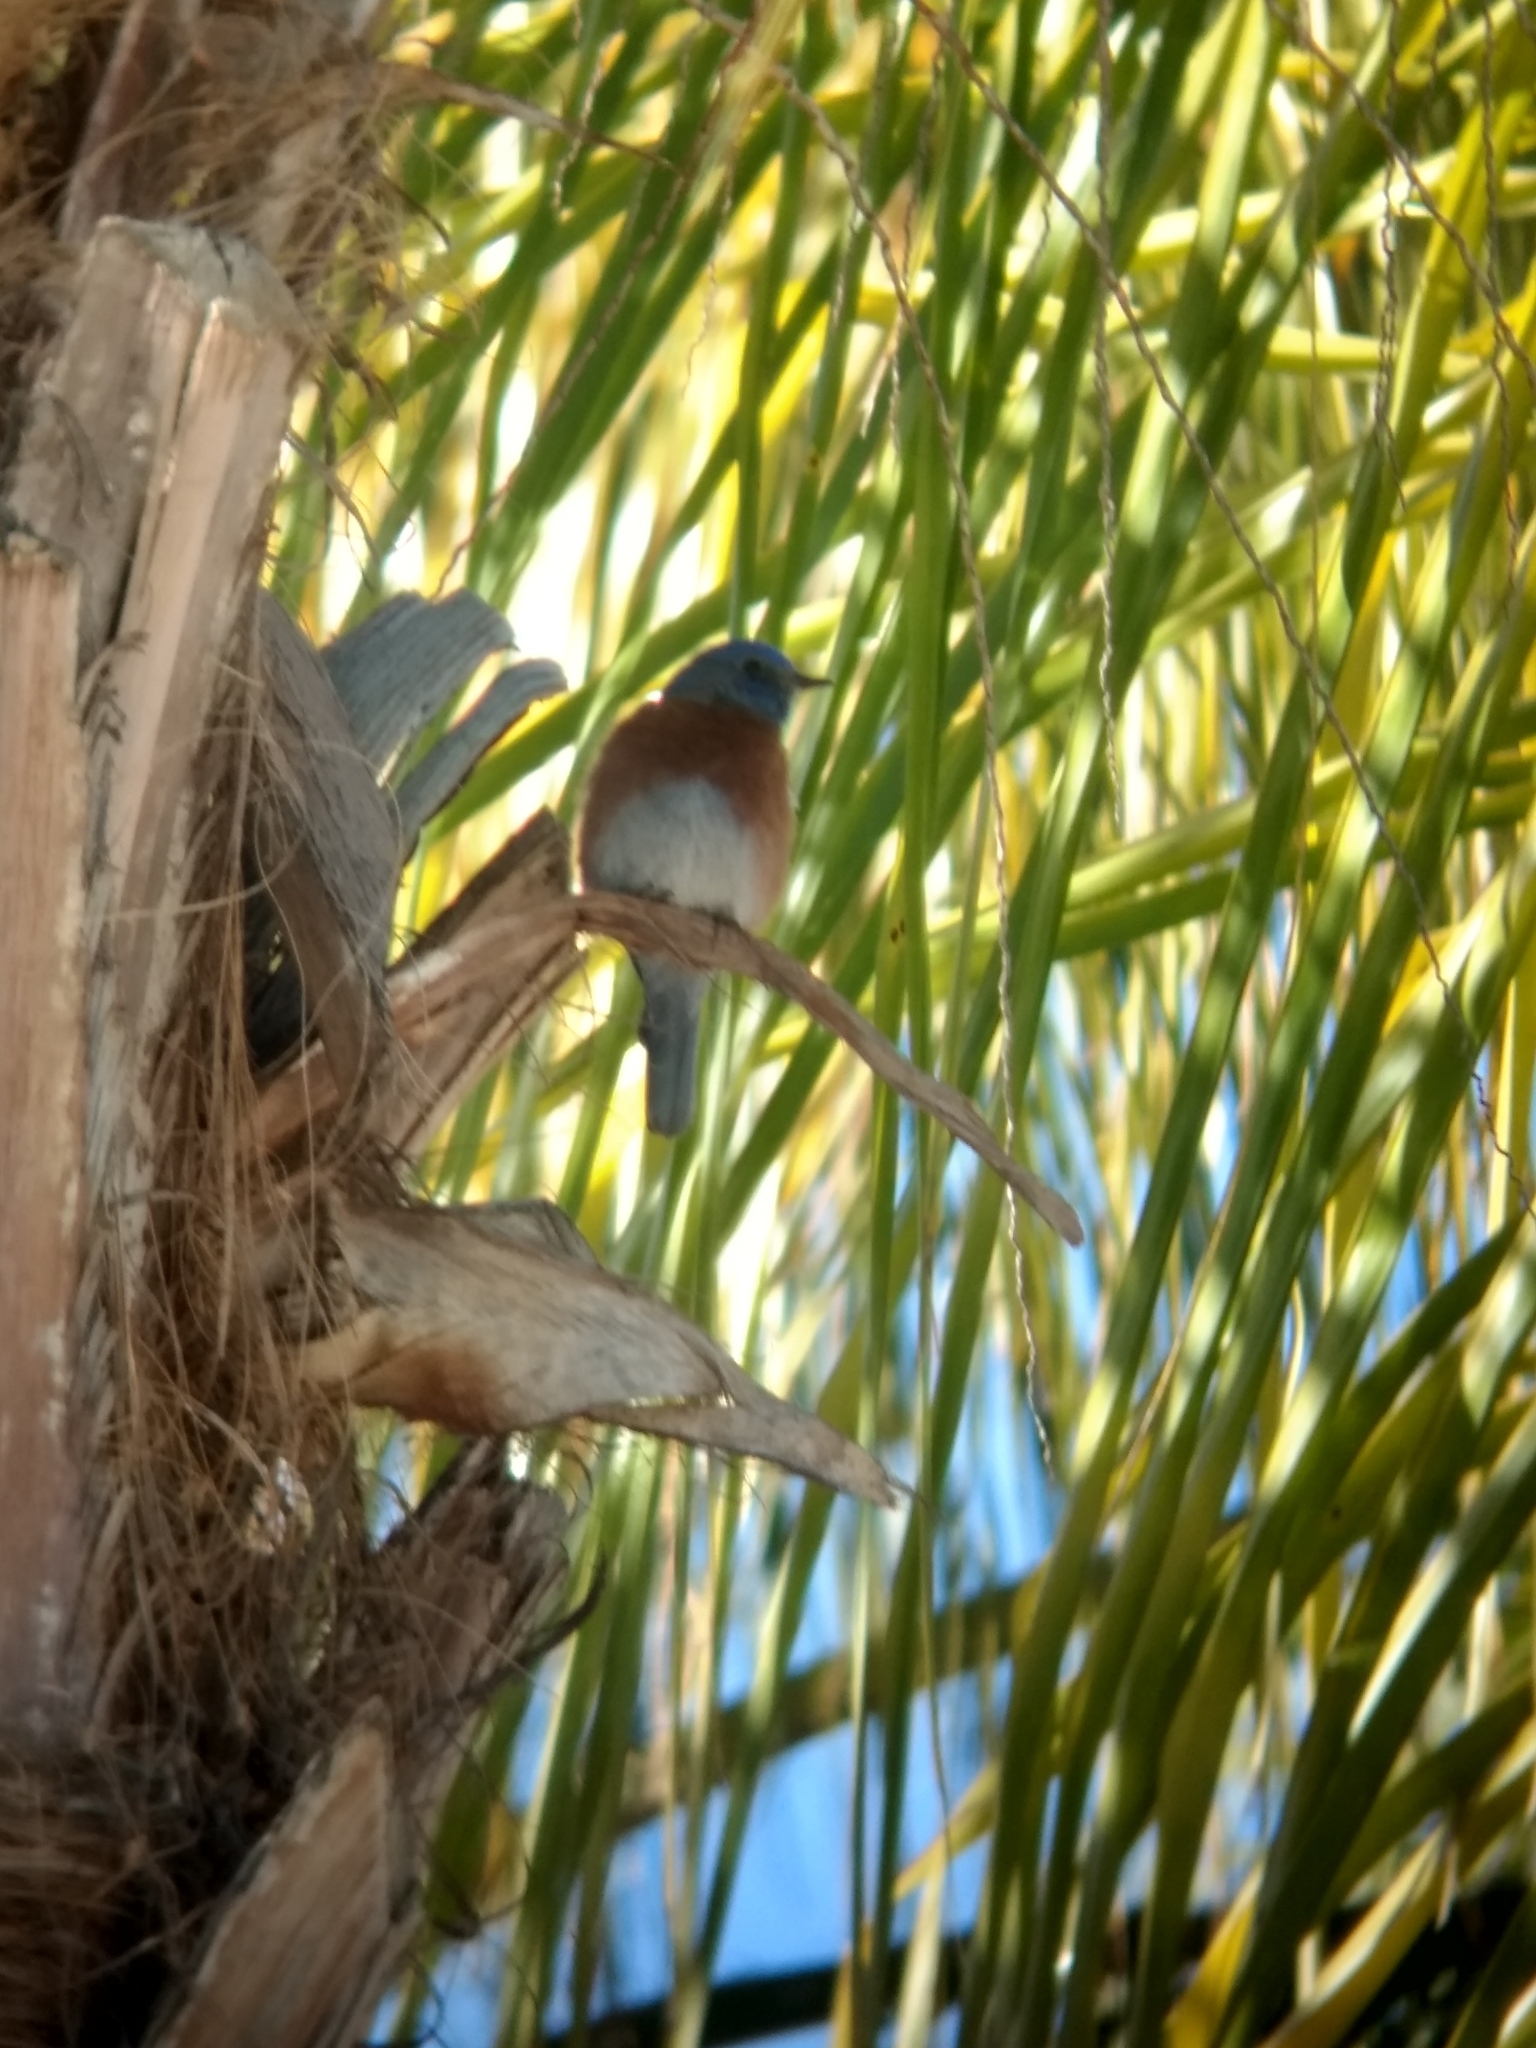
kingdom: Animalia
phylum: Chordata
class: Aves
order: Passeriformes
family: Turdidae
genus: Sialia
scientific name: Sialia mexicana
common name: Western bluebird
